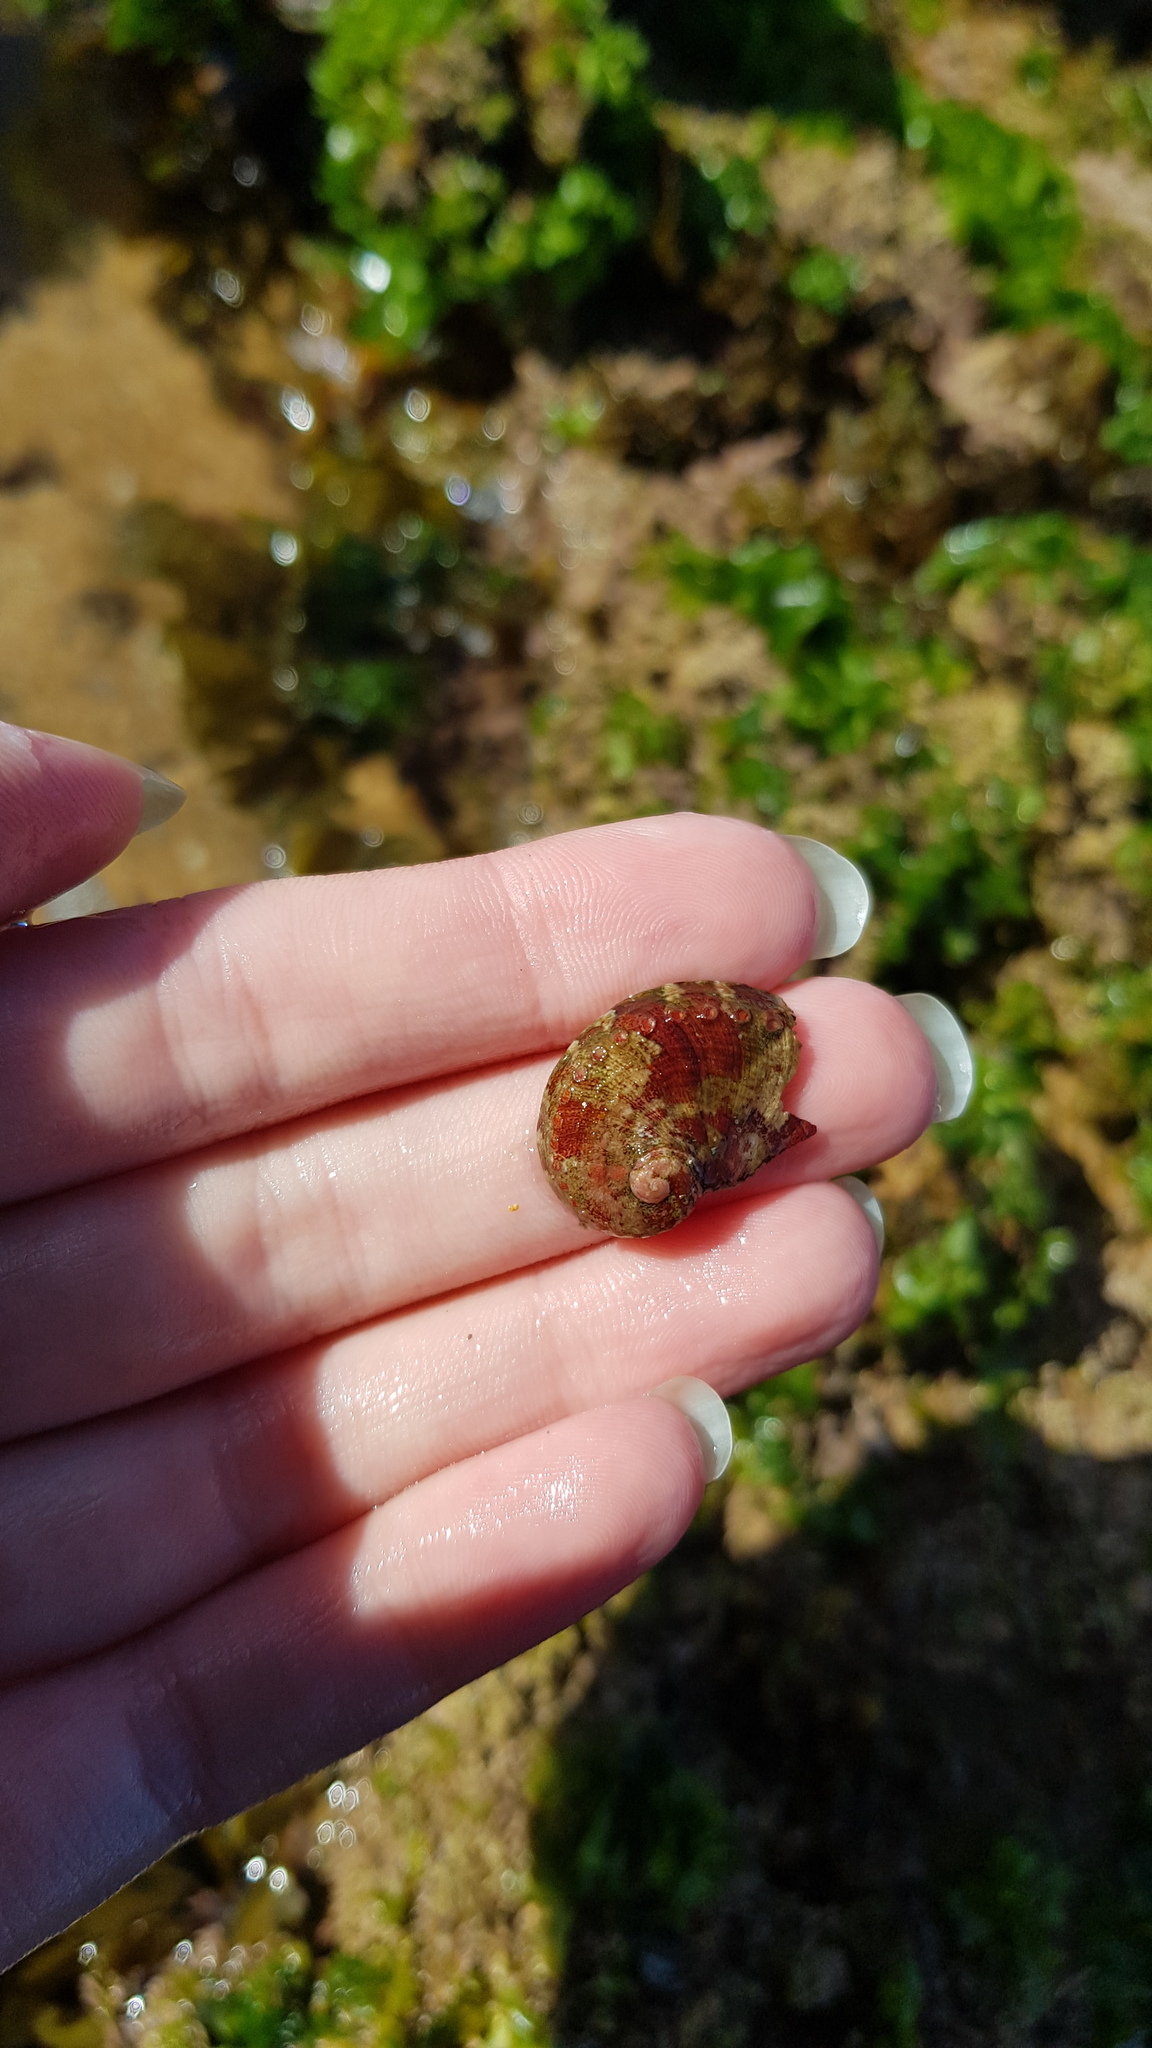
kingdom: Animalia
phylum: Mollusca
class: Gastropoda
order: Lepetellida
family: Haliotidae
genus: Haliotis
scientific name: Haliotis coccoradiata
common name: Reddish-rayed abalone
